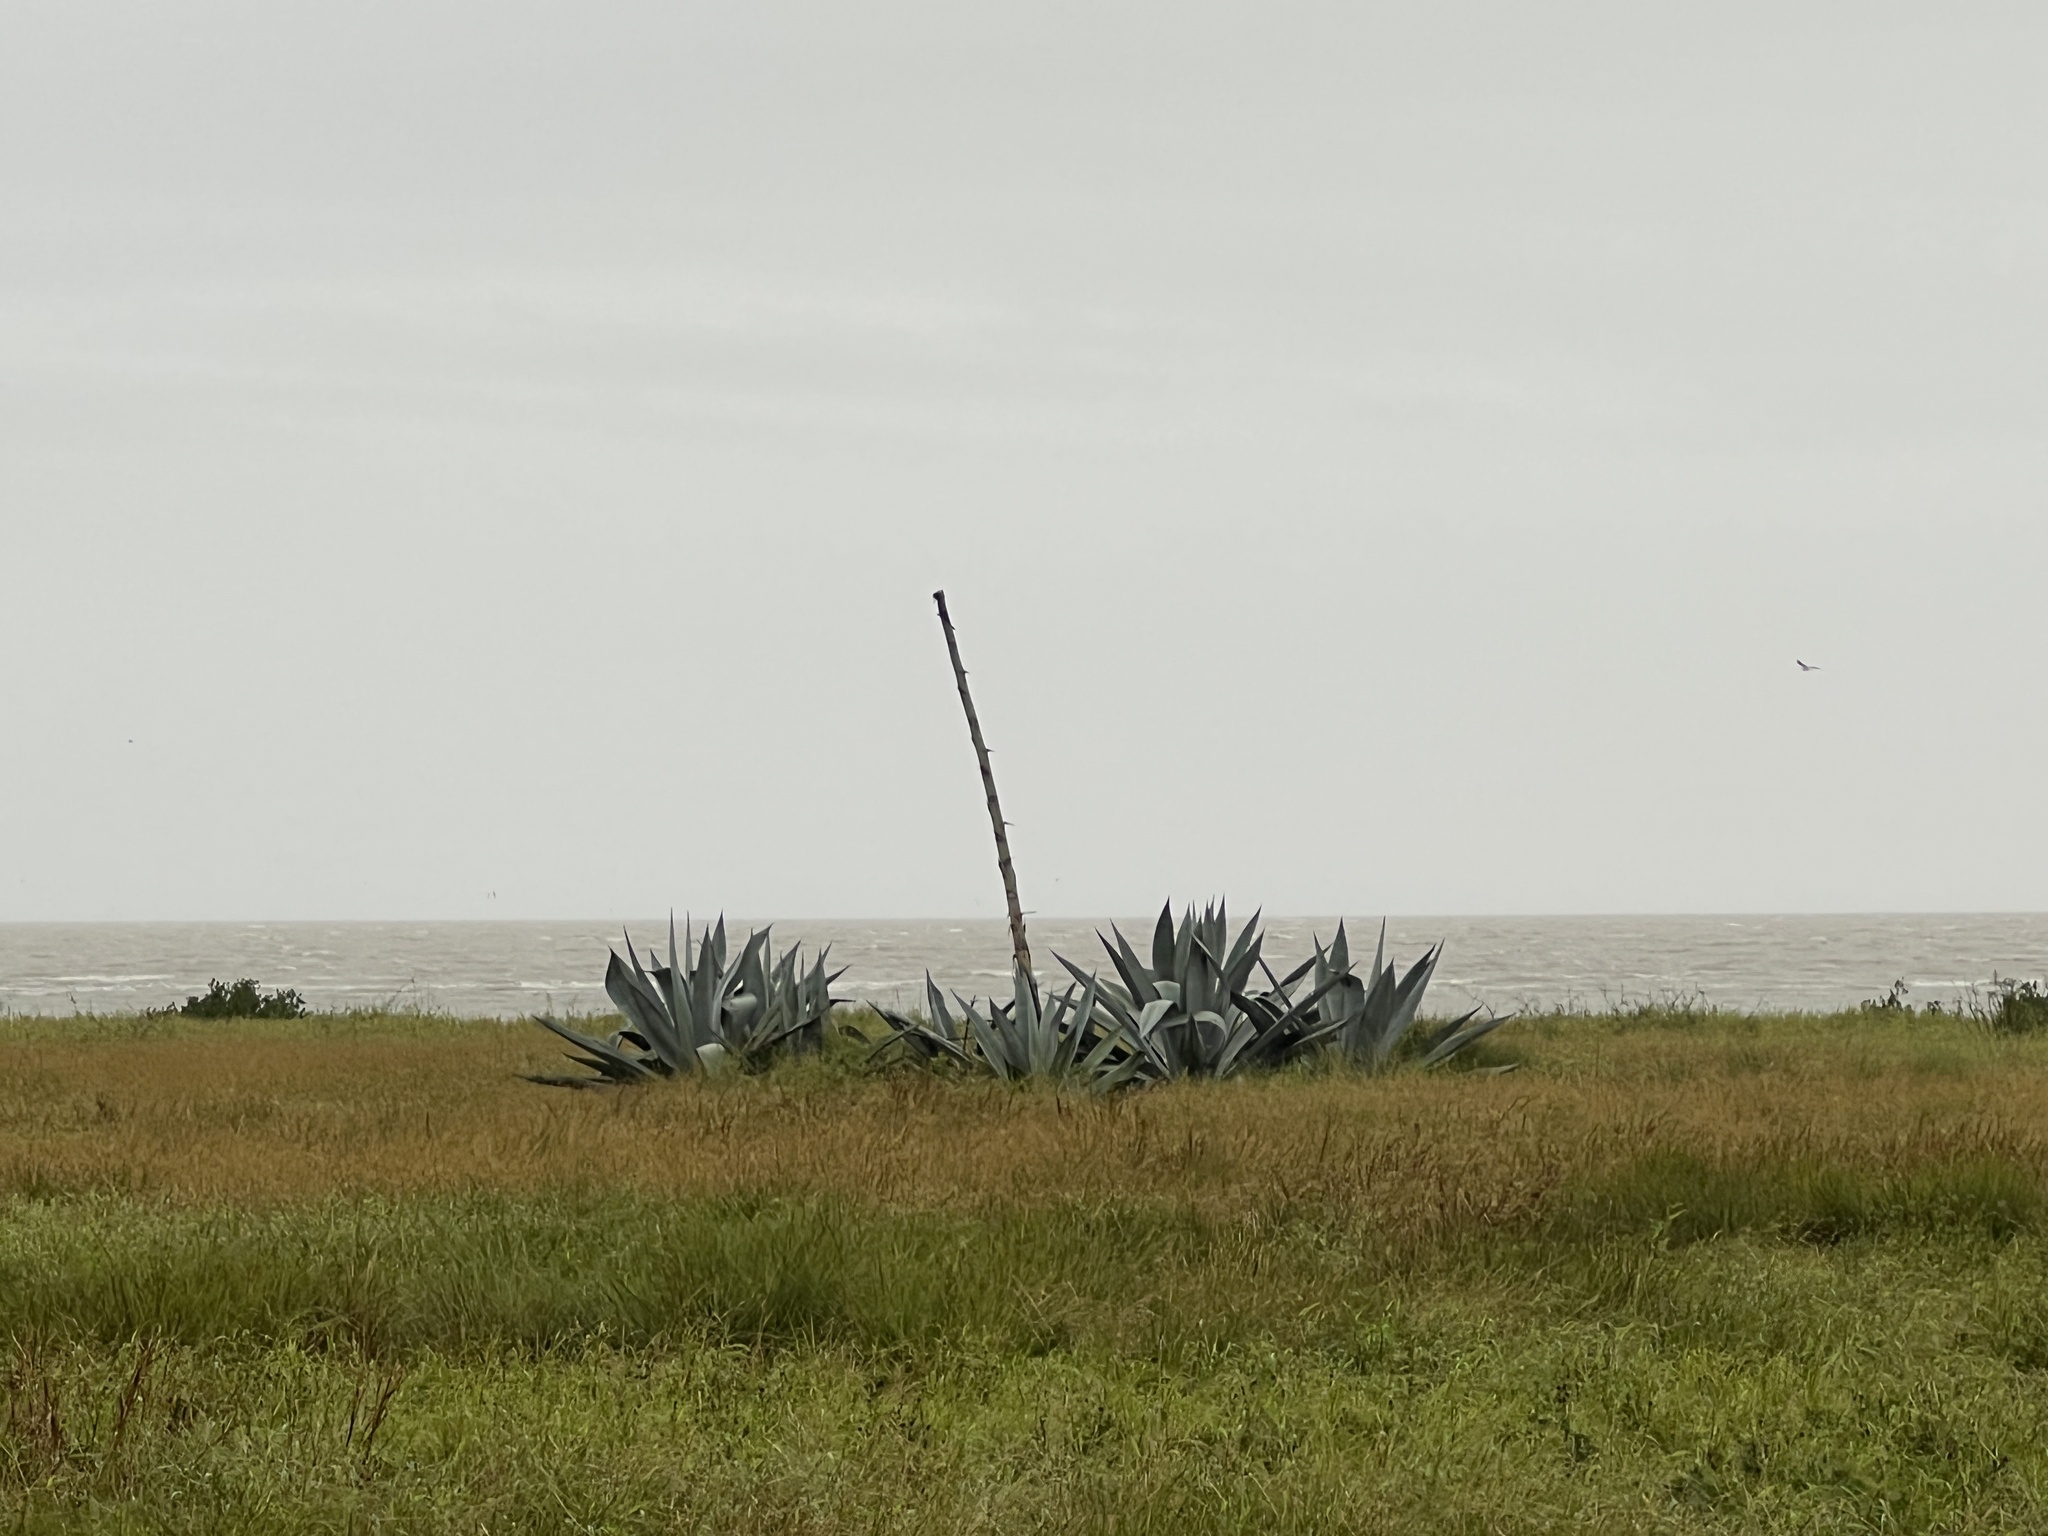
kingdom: Plantae
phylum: Tracheophyta
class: Liliopsida
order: Asparagales
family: Asparagaceae
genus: Agave
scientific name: Agave americana
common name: Centuryplant
